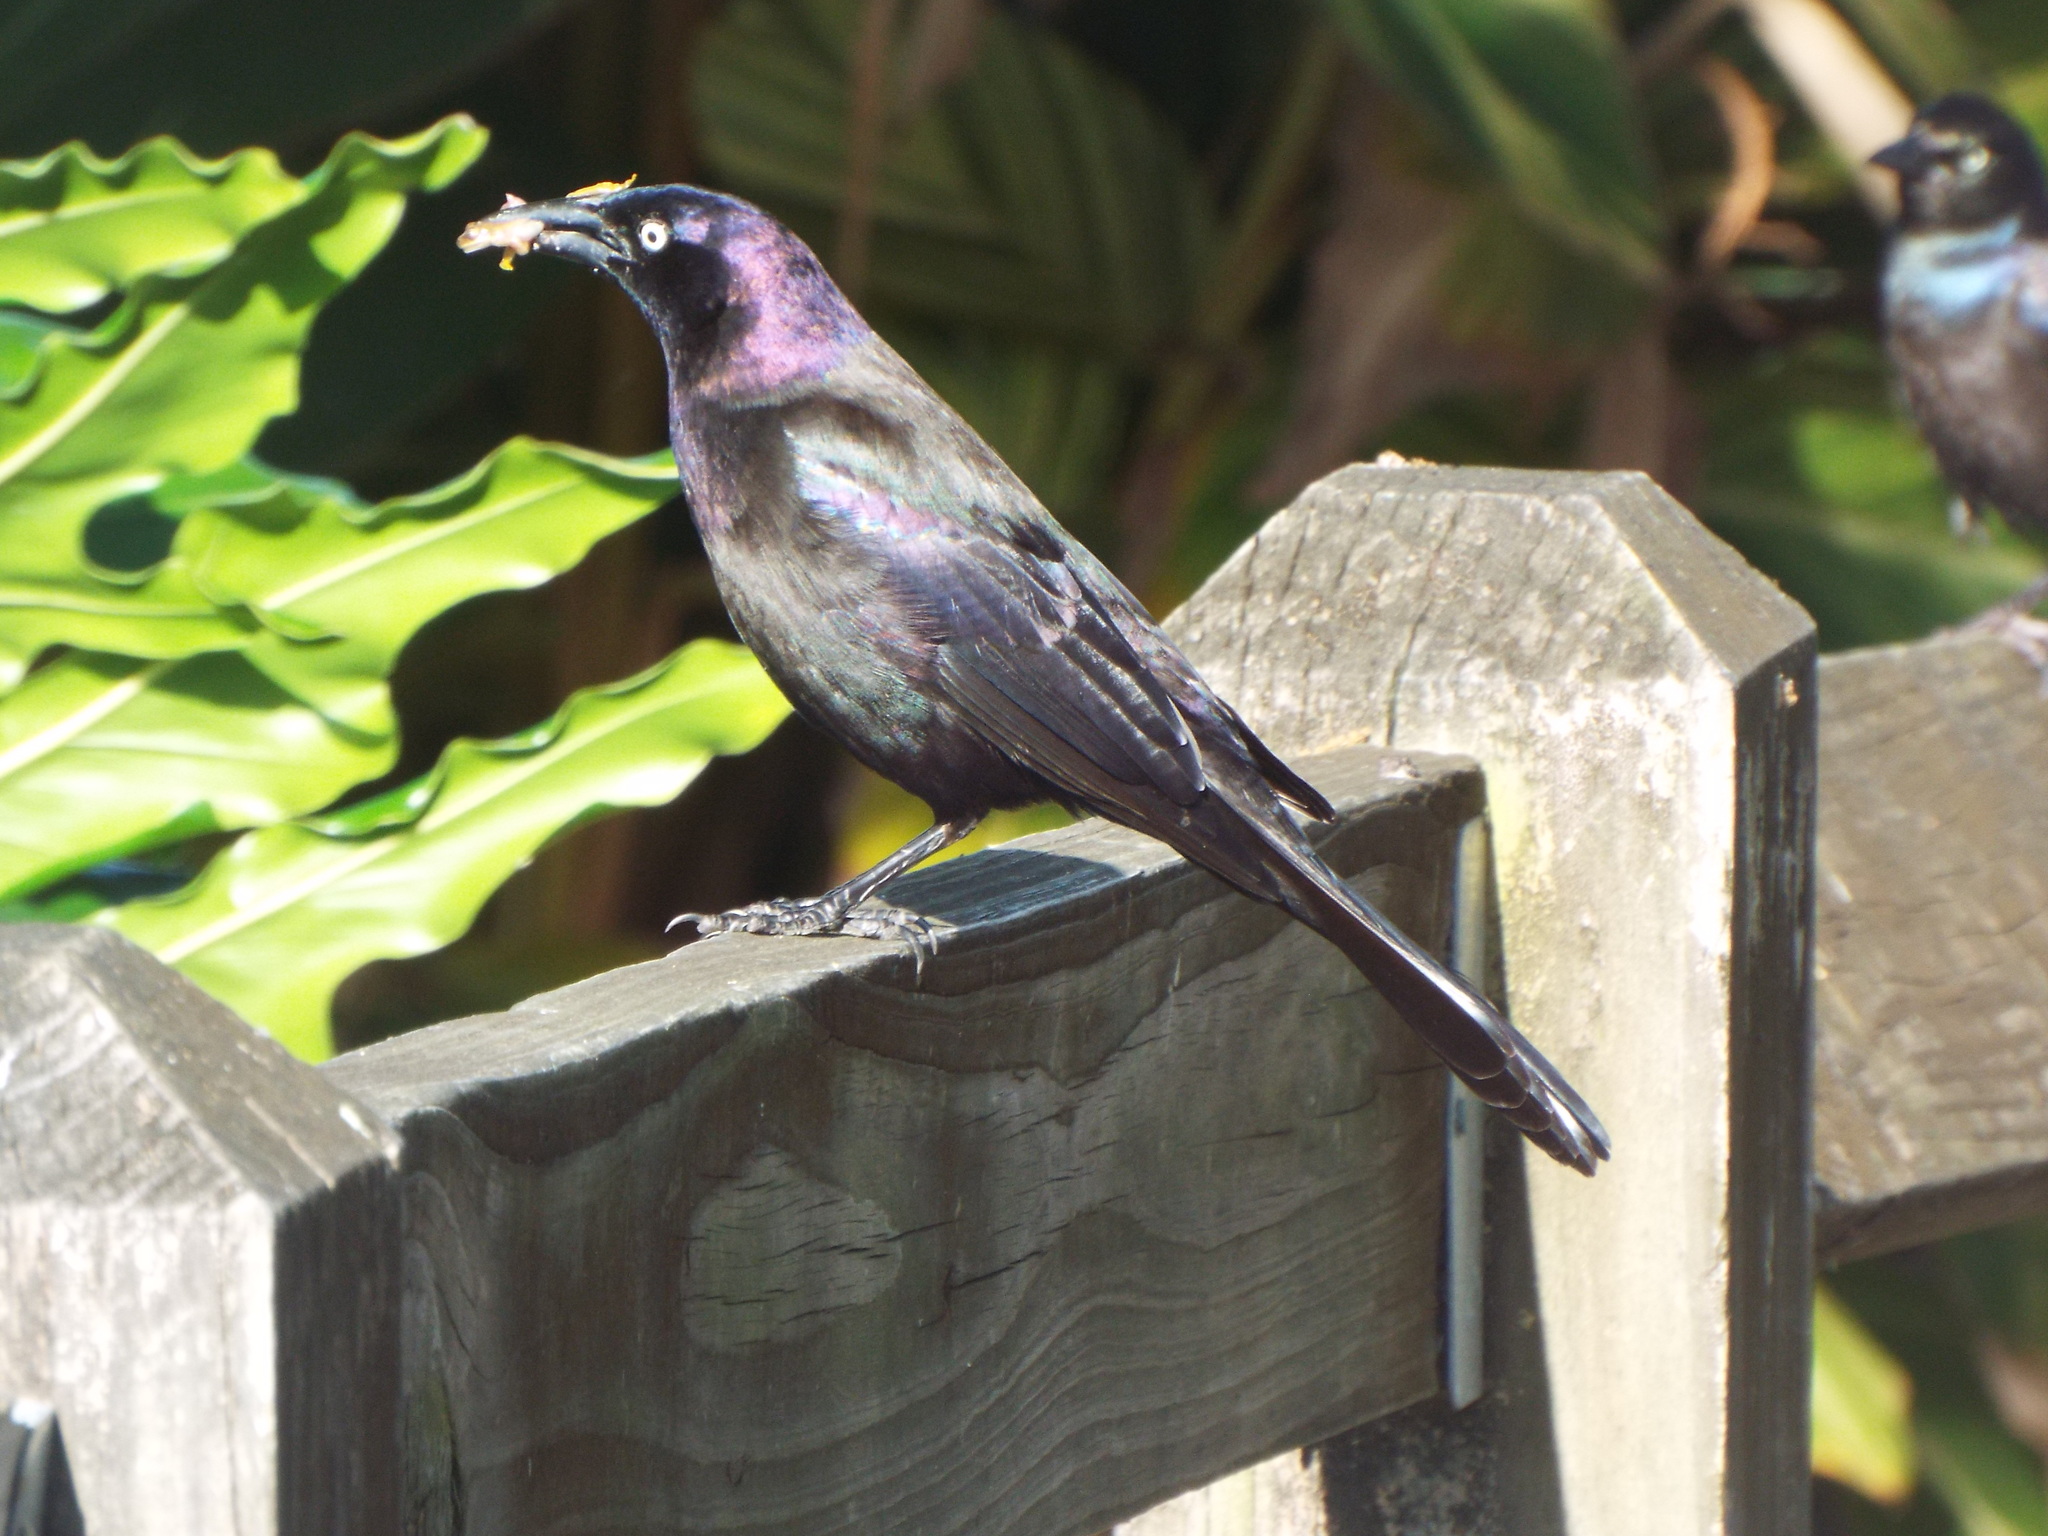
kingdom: Animalia
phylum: Chordata
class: Aves
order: Passeriformes
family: Icteridae
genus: Quiscalus
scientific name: Quiscalus quiscula
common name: Common grackle
